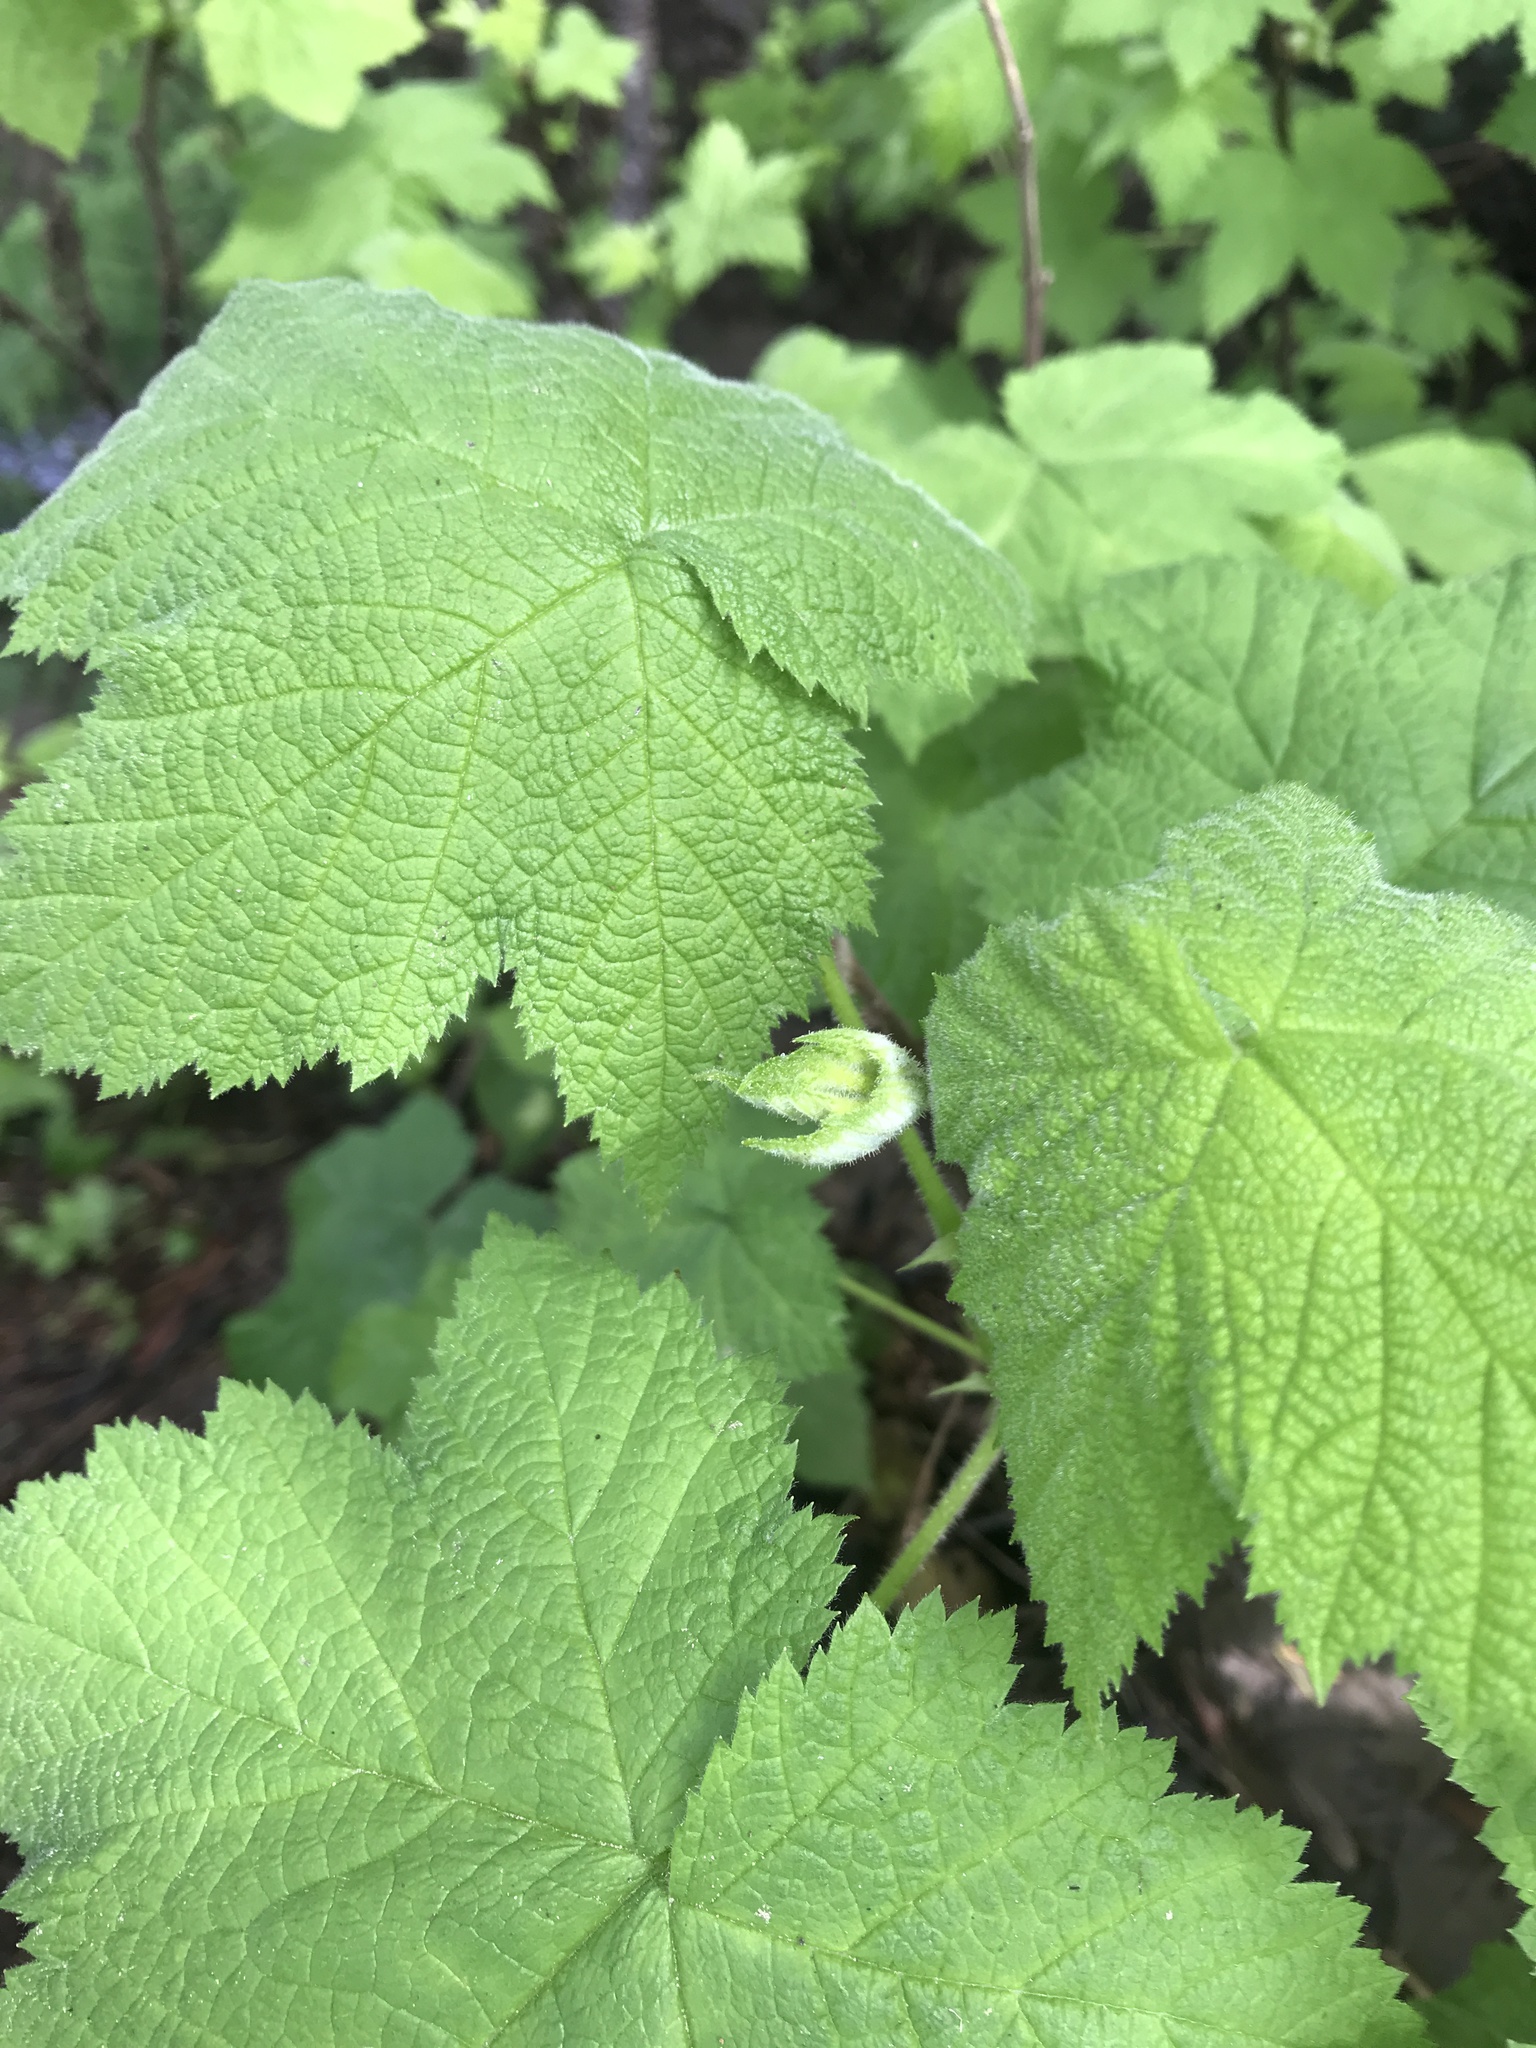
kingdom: Plantae
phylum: Tracheophyta
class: Magnoliopsida
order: Rosales
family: Rosaceae
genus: Rubus
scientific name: Rubus parviflorus
